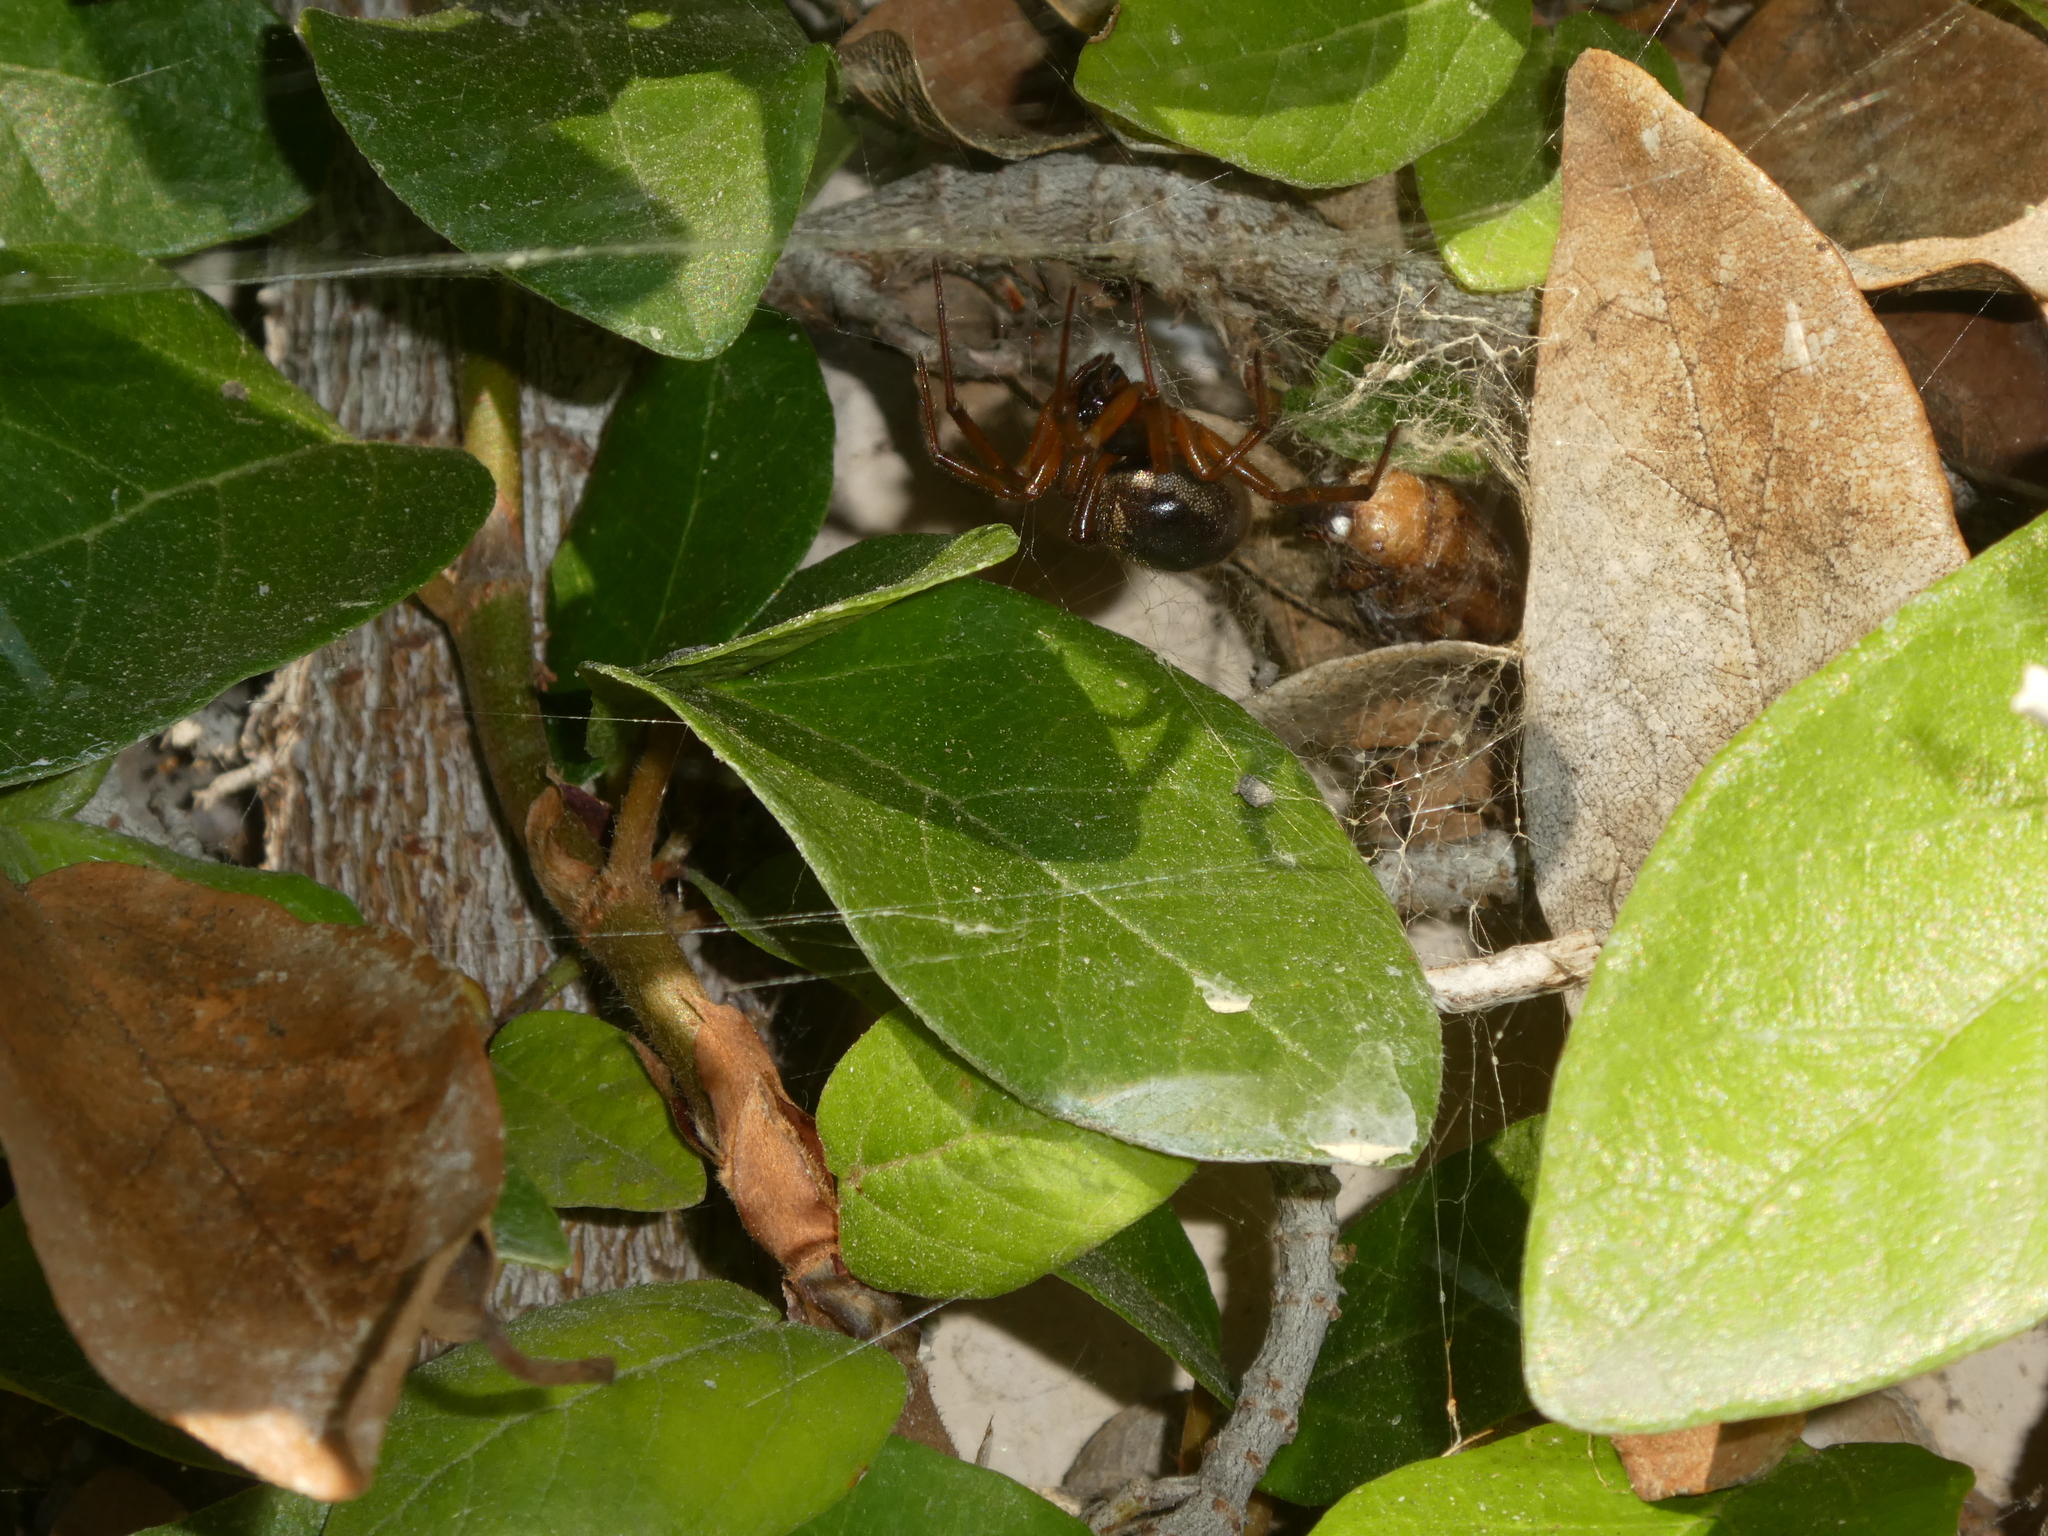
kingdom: Animalia
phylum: Arthropoda
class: Arachnida
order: Araneae
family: Theridiidae
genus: Steatoda
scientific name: Steatoda nobilis
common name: Cobweb weaver
